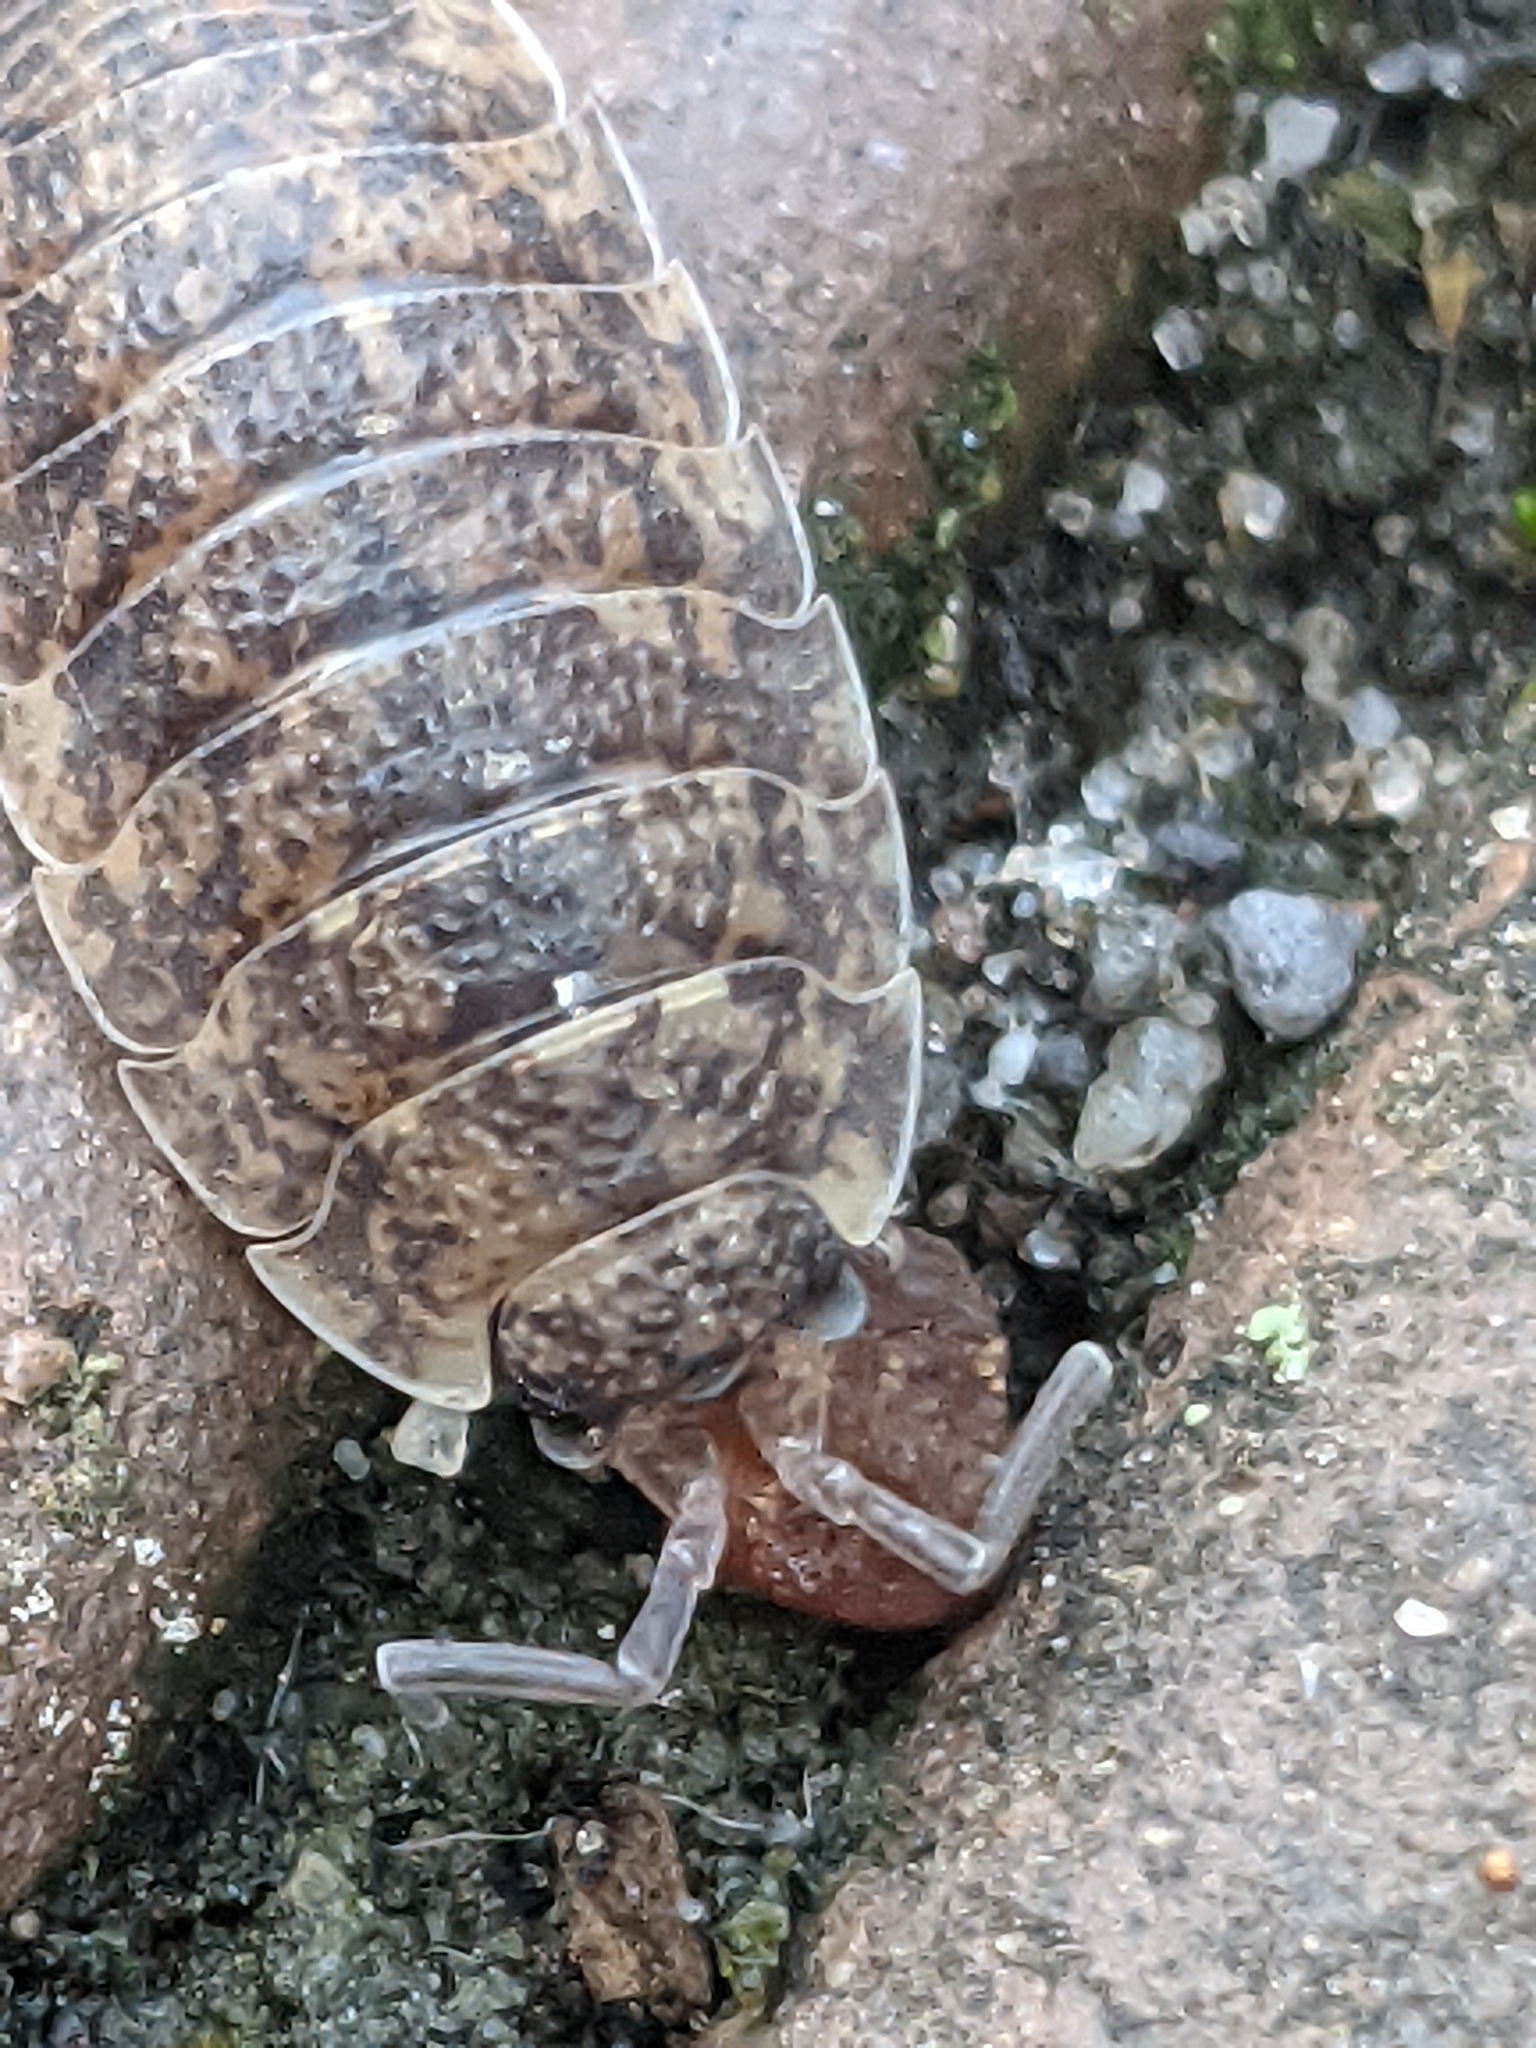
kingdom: Animalia
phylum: Arthropoda
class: Malacostraca
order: Isopoda
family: Porcellionidae
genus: Porcellio
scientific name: Porcellio scaber
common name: Common rough woodlouse
